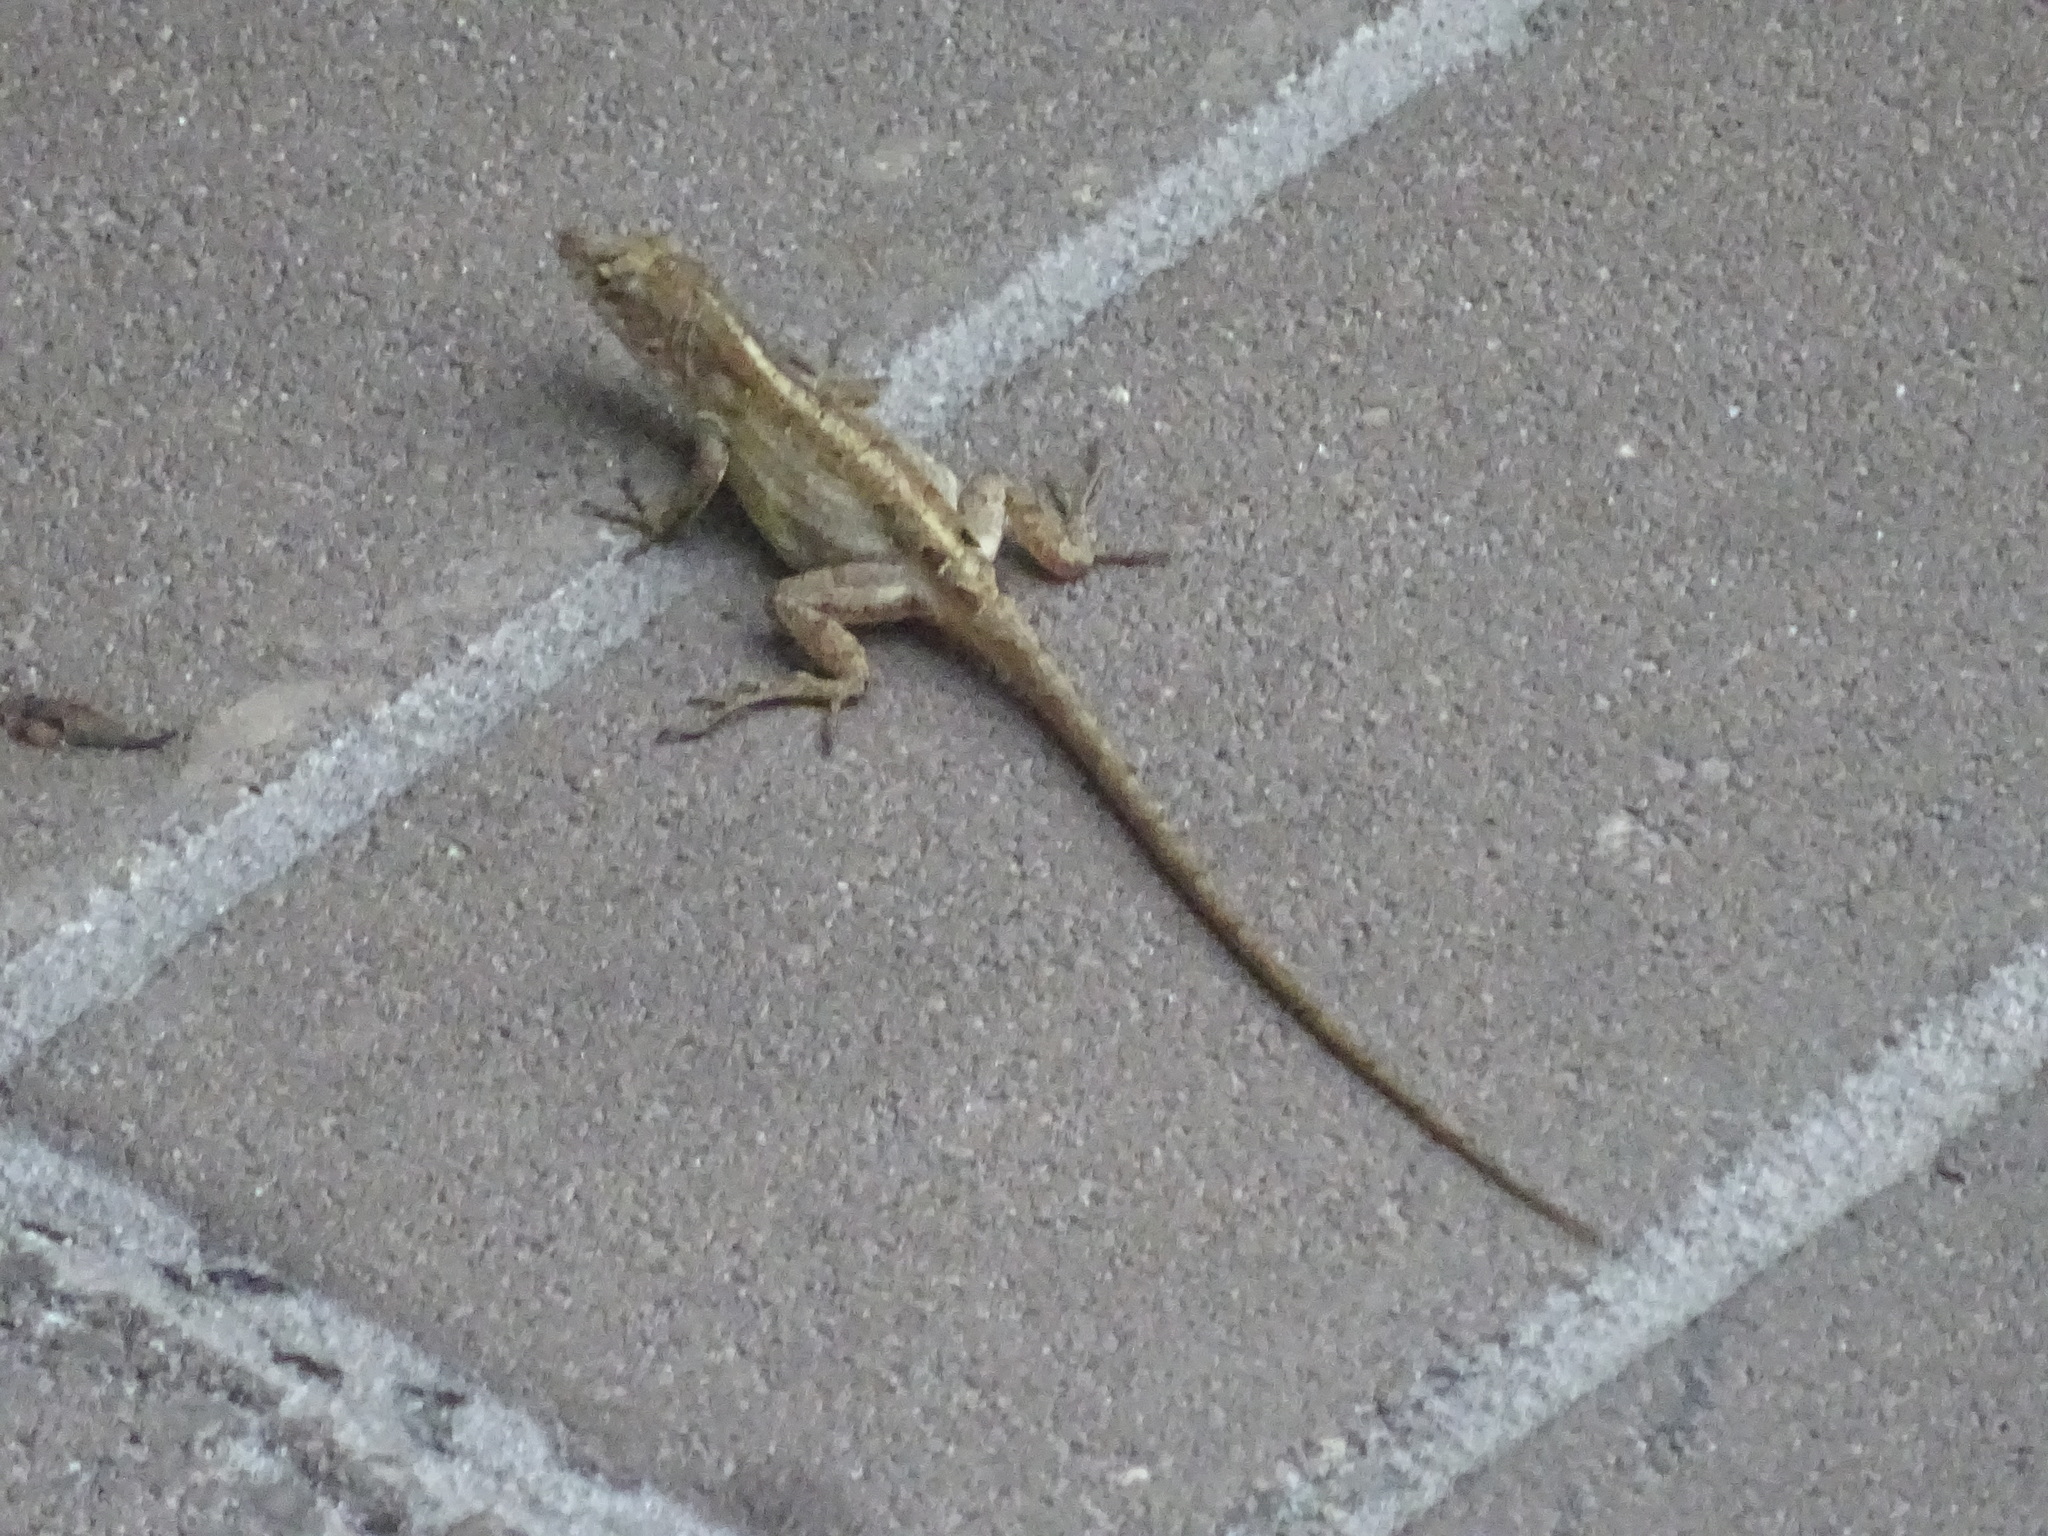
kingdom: Animalia
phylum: Chordata
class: Squamata
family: Dactyloidae
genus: Anolis
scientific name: Anolis sagrei
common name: Brown anole
